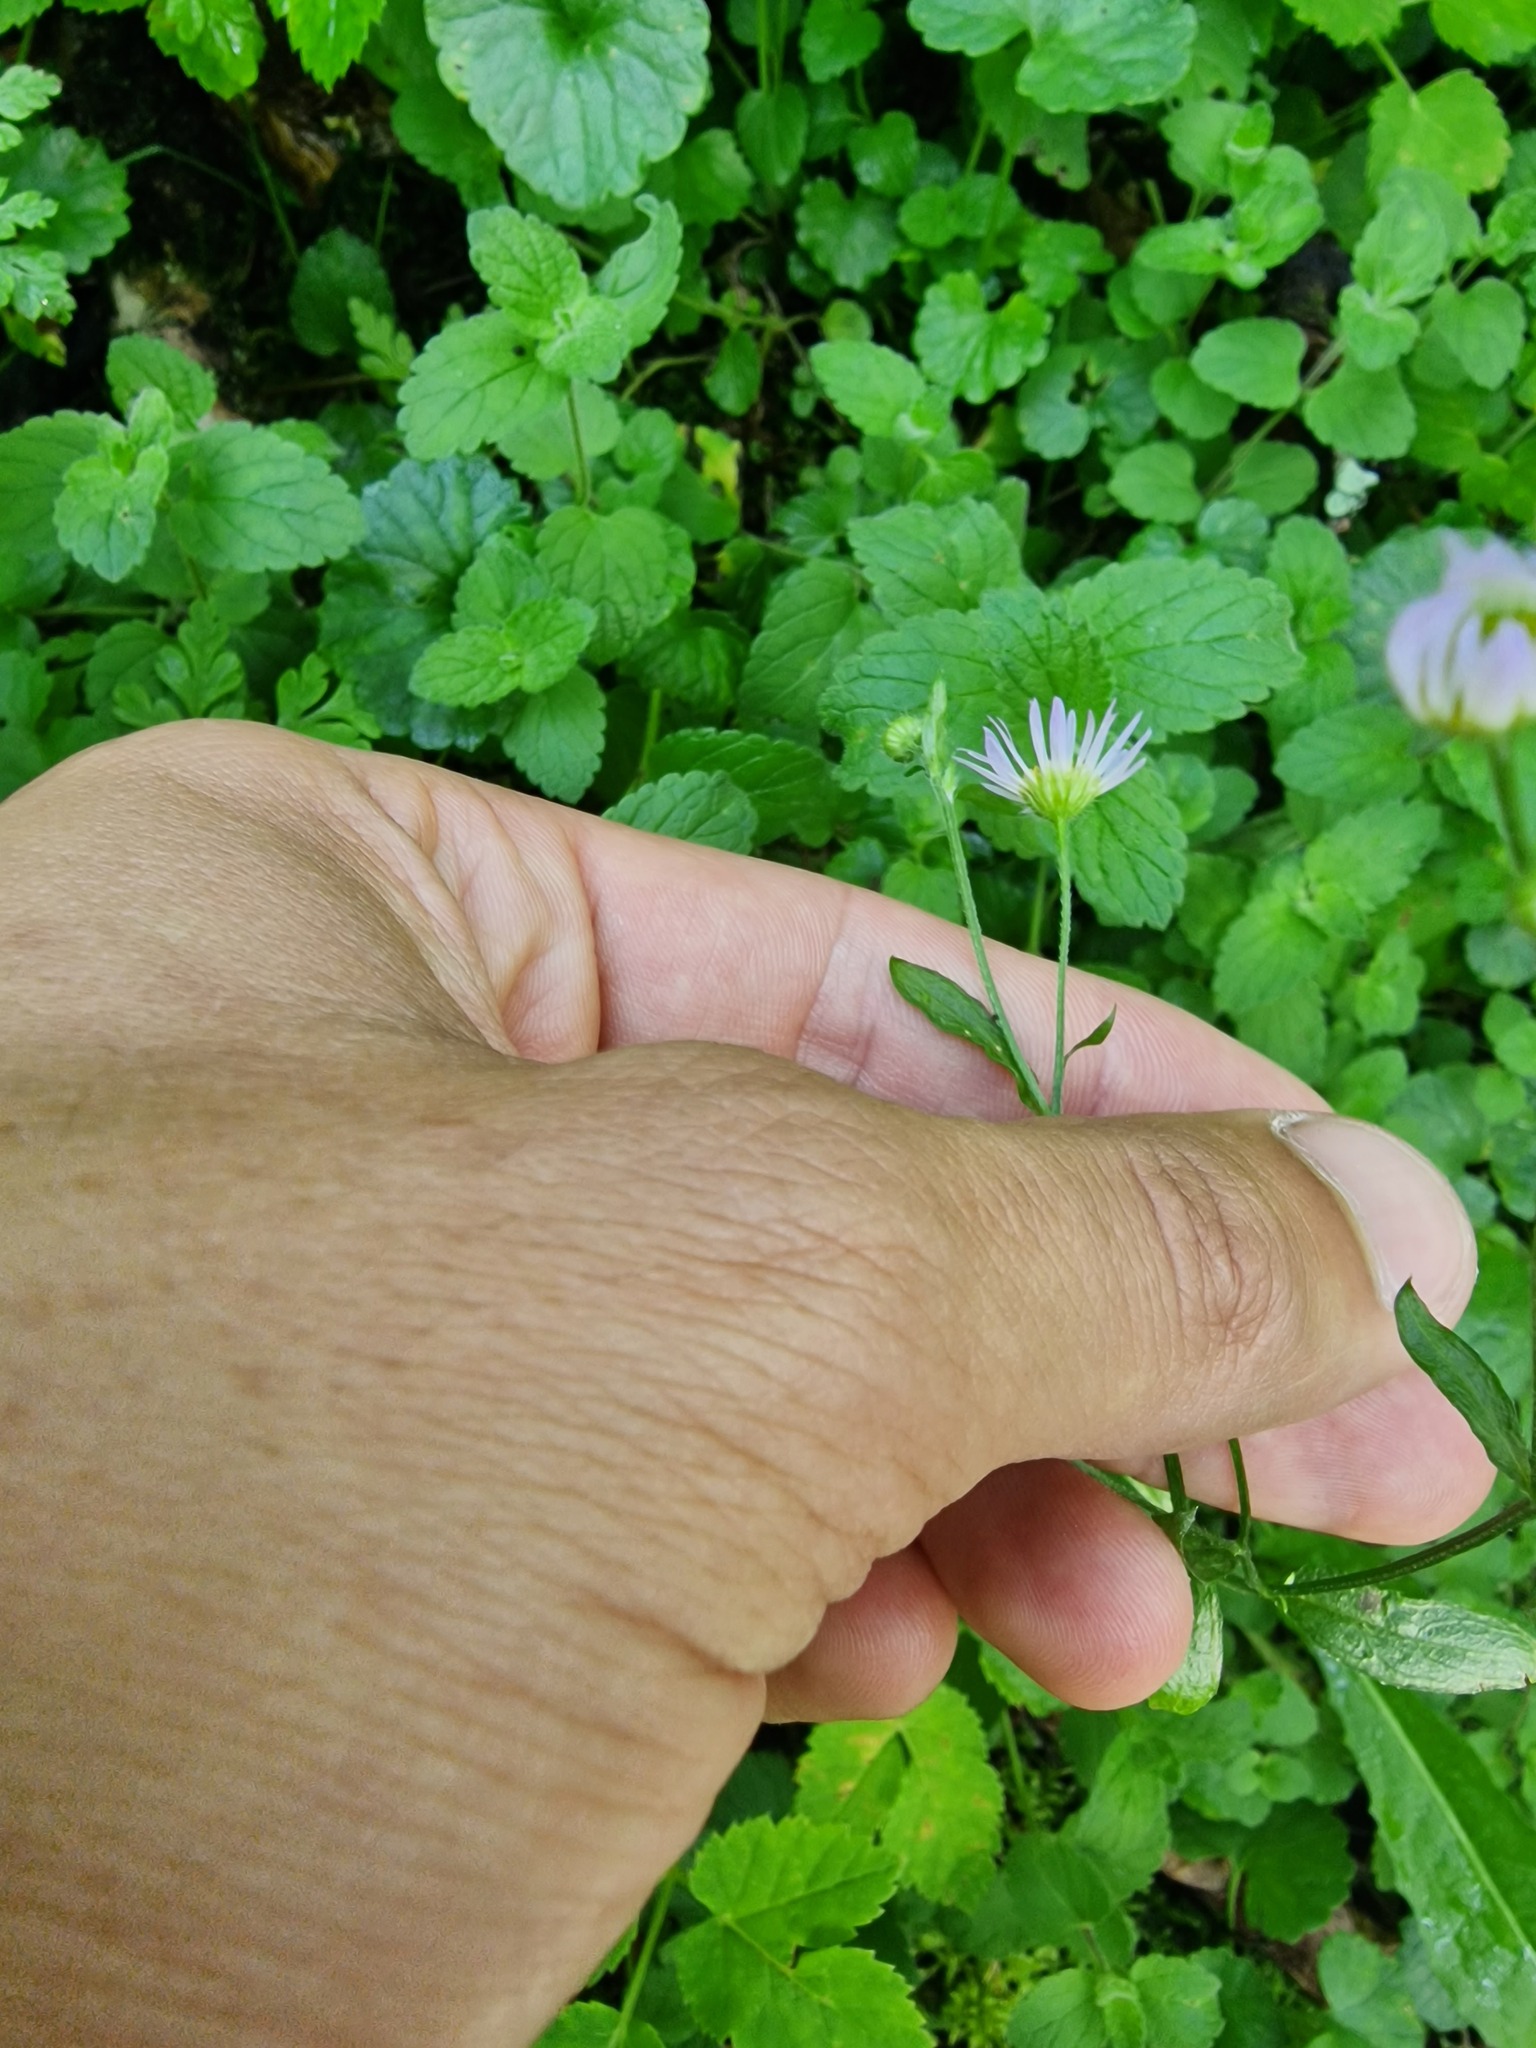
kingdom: Plantae
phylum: Tracheophyta
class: Magnoliopsida
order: Asterales
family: Asteraceae
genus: Erigeron
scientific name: Erigeron annuus
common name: Tall fleabane
